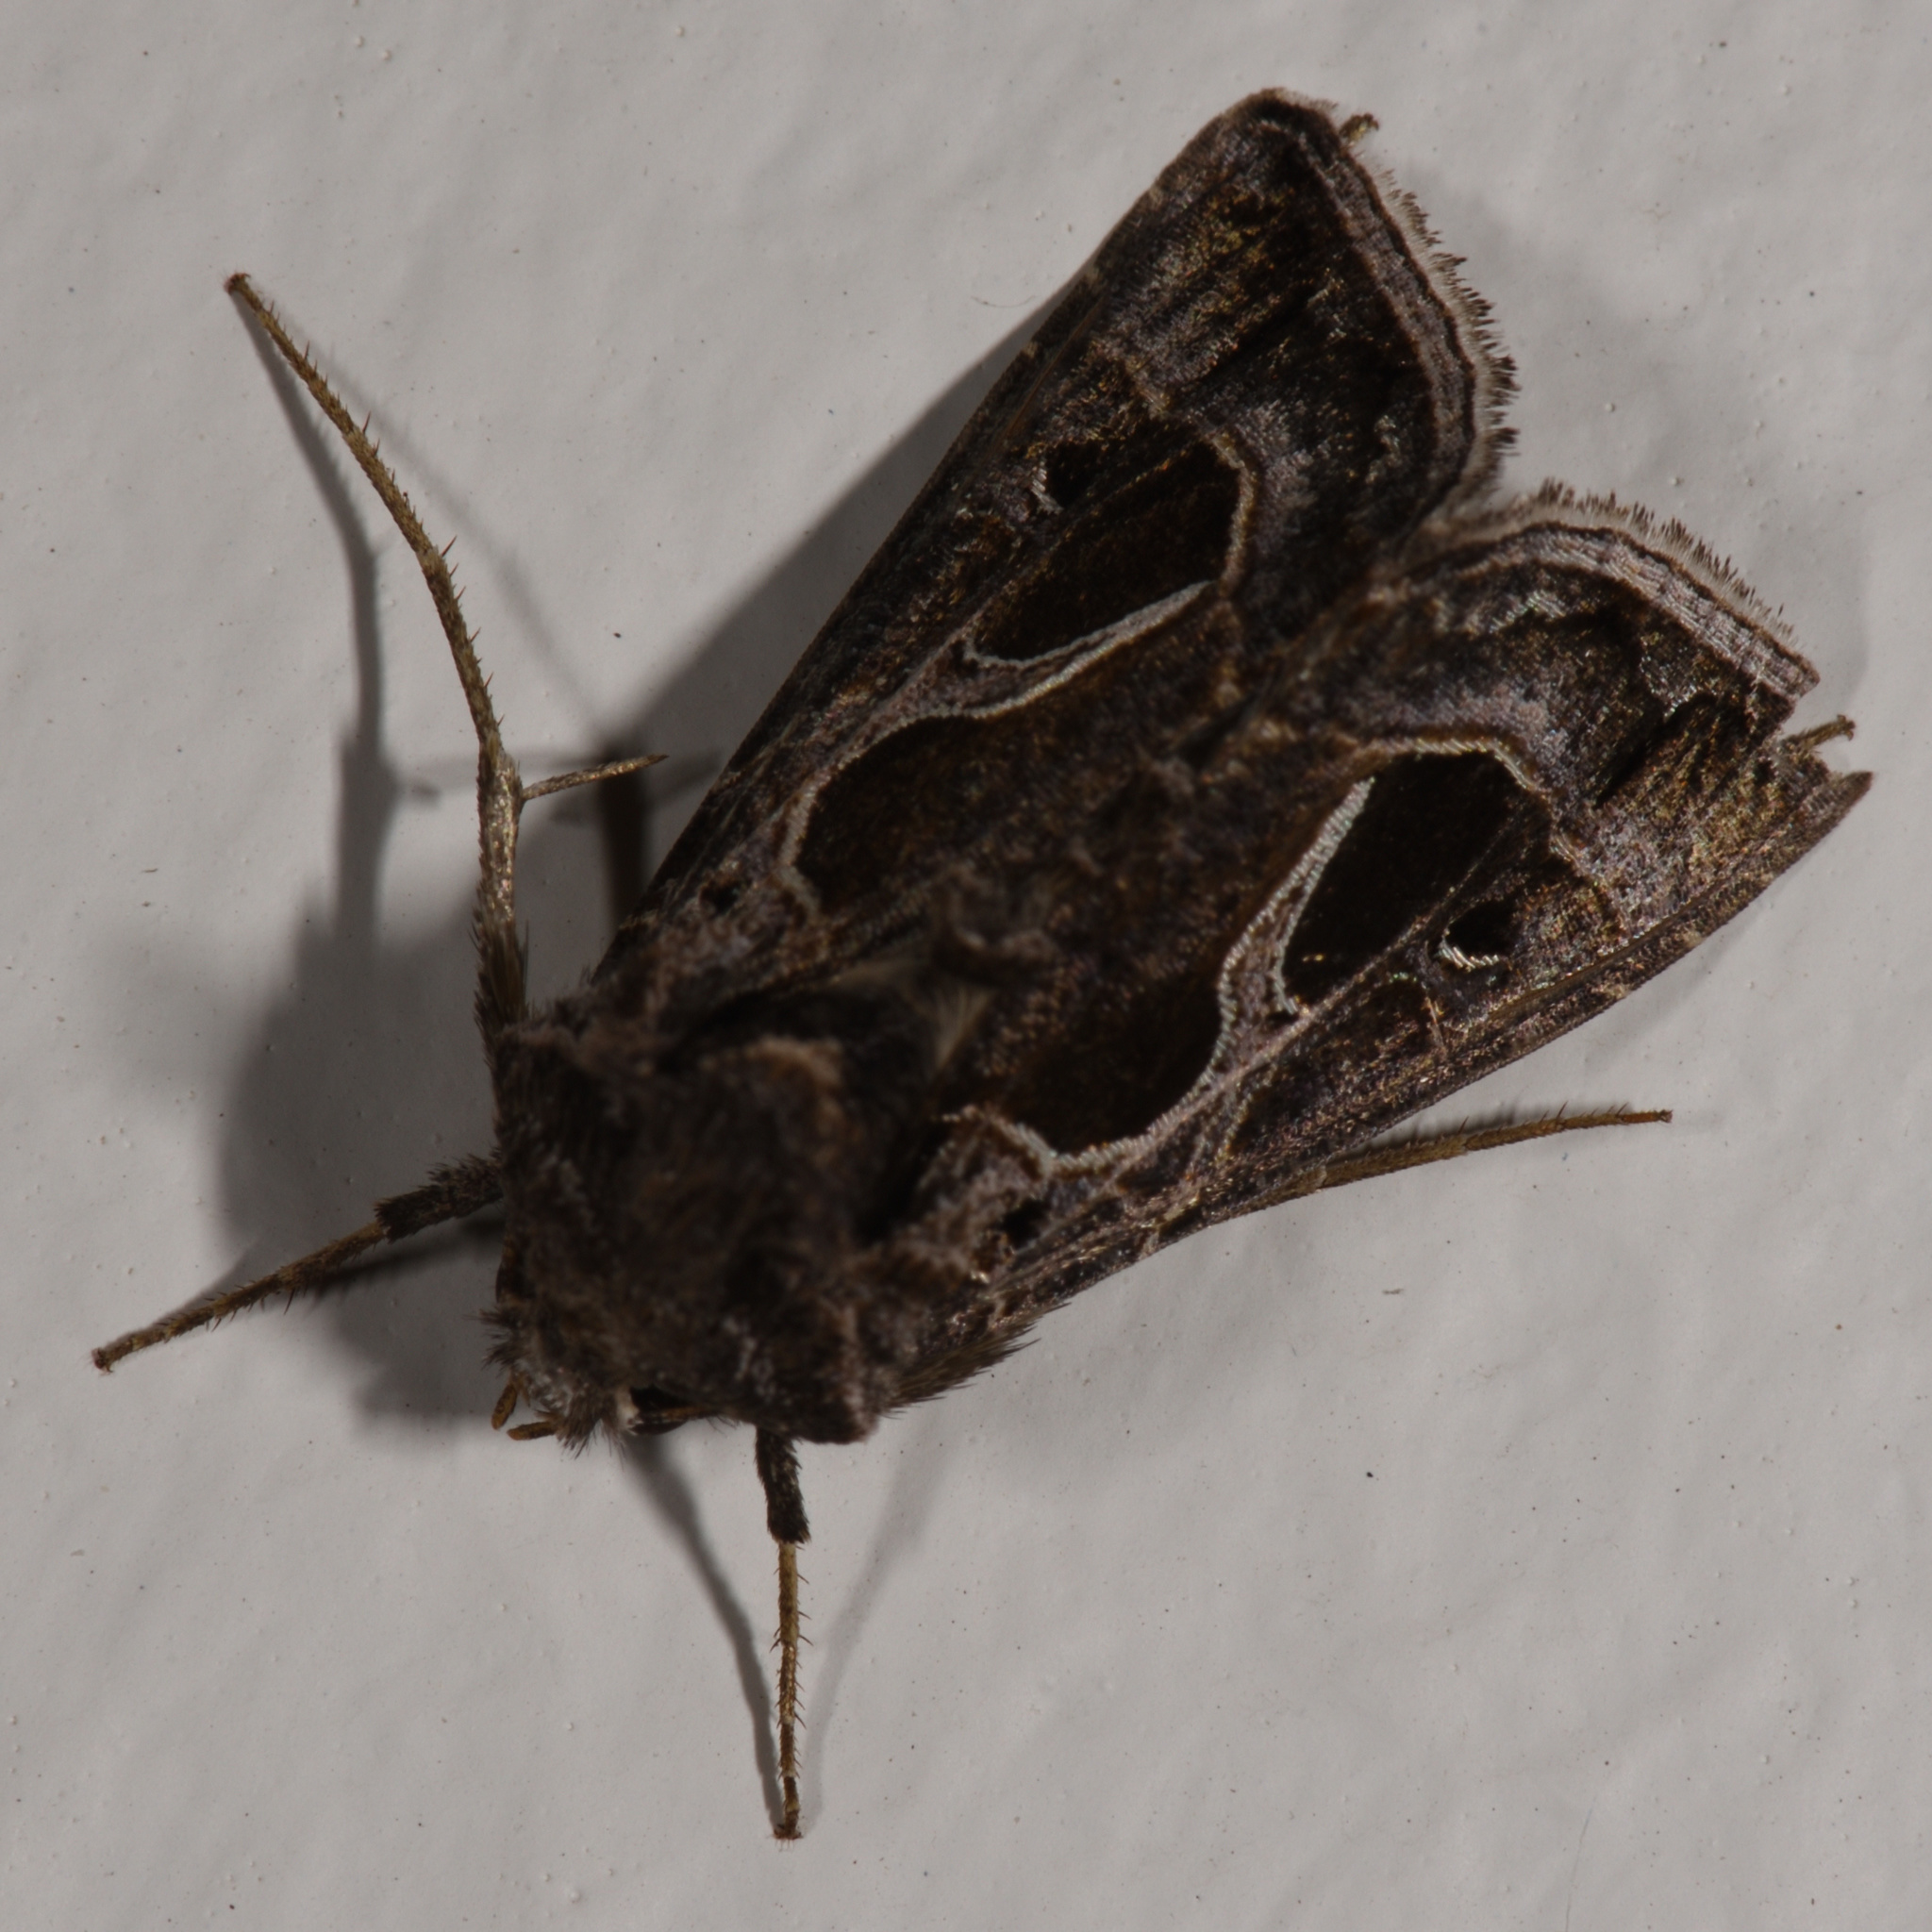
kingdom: Animalia
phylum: Arthropoda
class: Insecta
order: Lepidoptera
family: Noctuidae
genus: Thysanoplusia
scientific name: Thysanoplusia indicator
